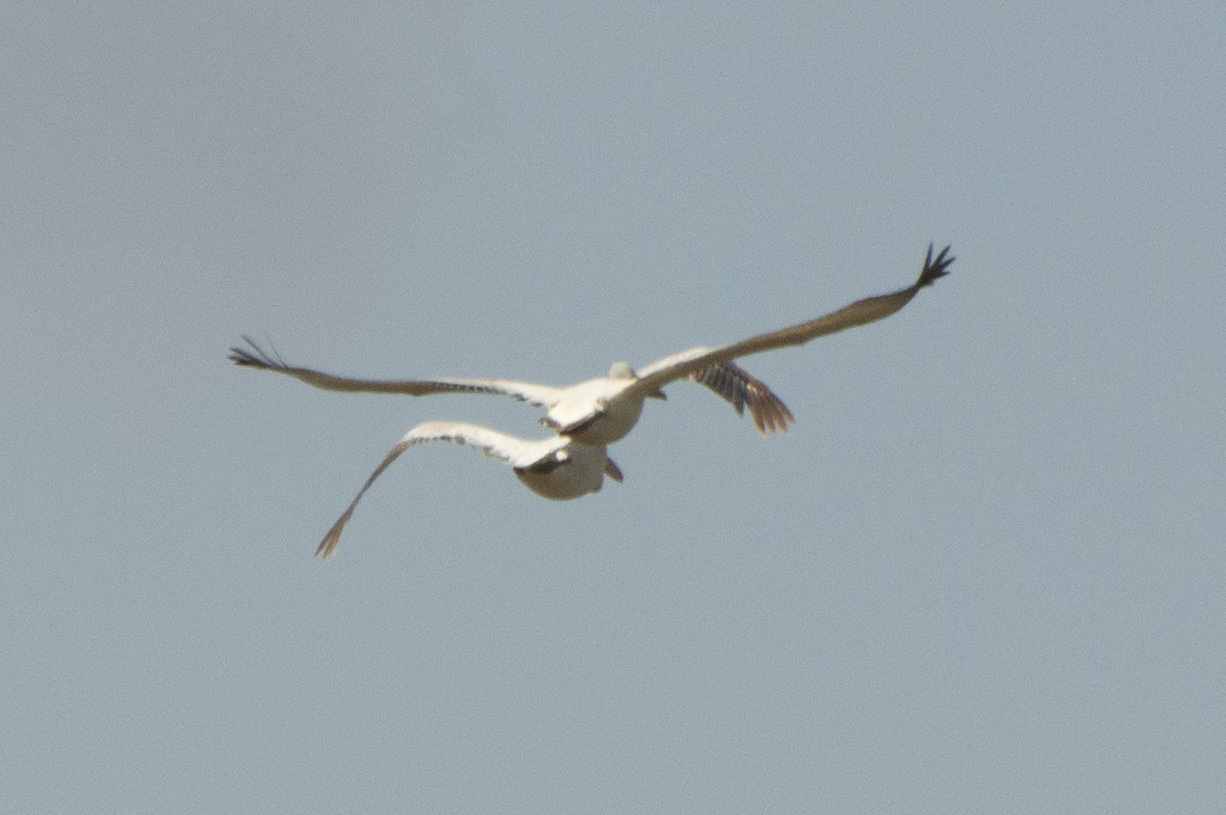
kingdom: Animalia
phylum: Chordata
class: Aves
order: Pelecaniformes
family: Pelecanidae
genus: Pelecanus
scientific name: Pelecanus crispus
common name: Dalmatian pelican
